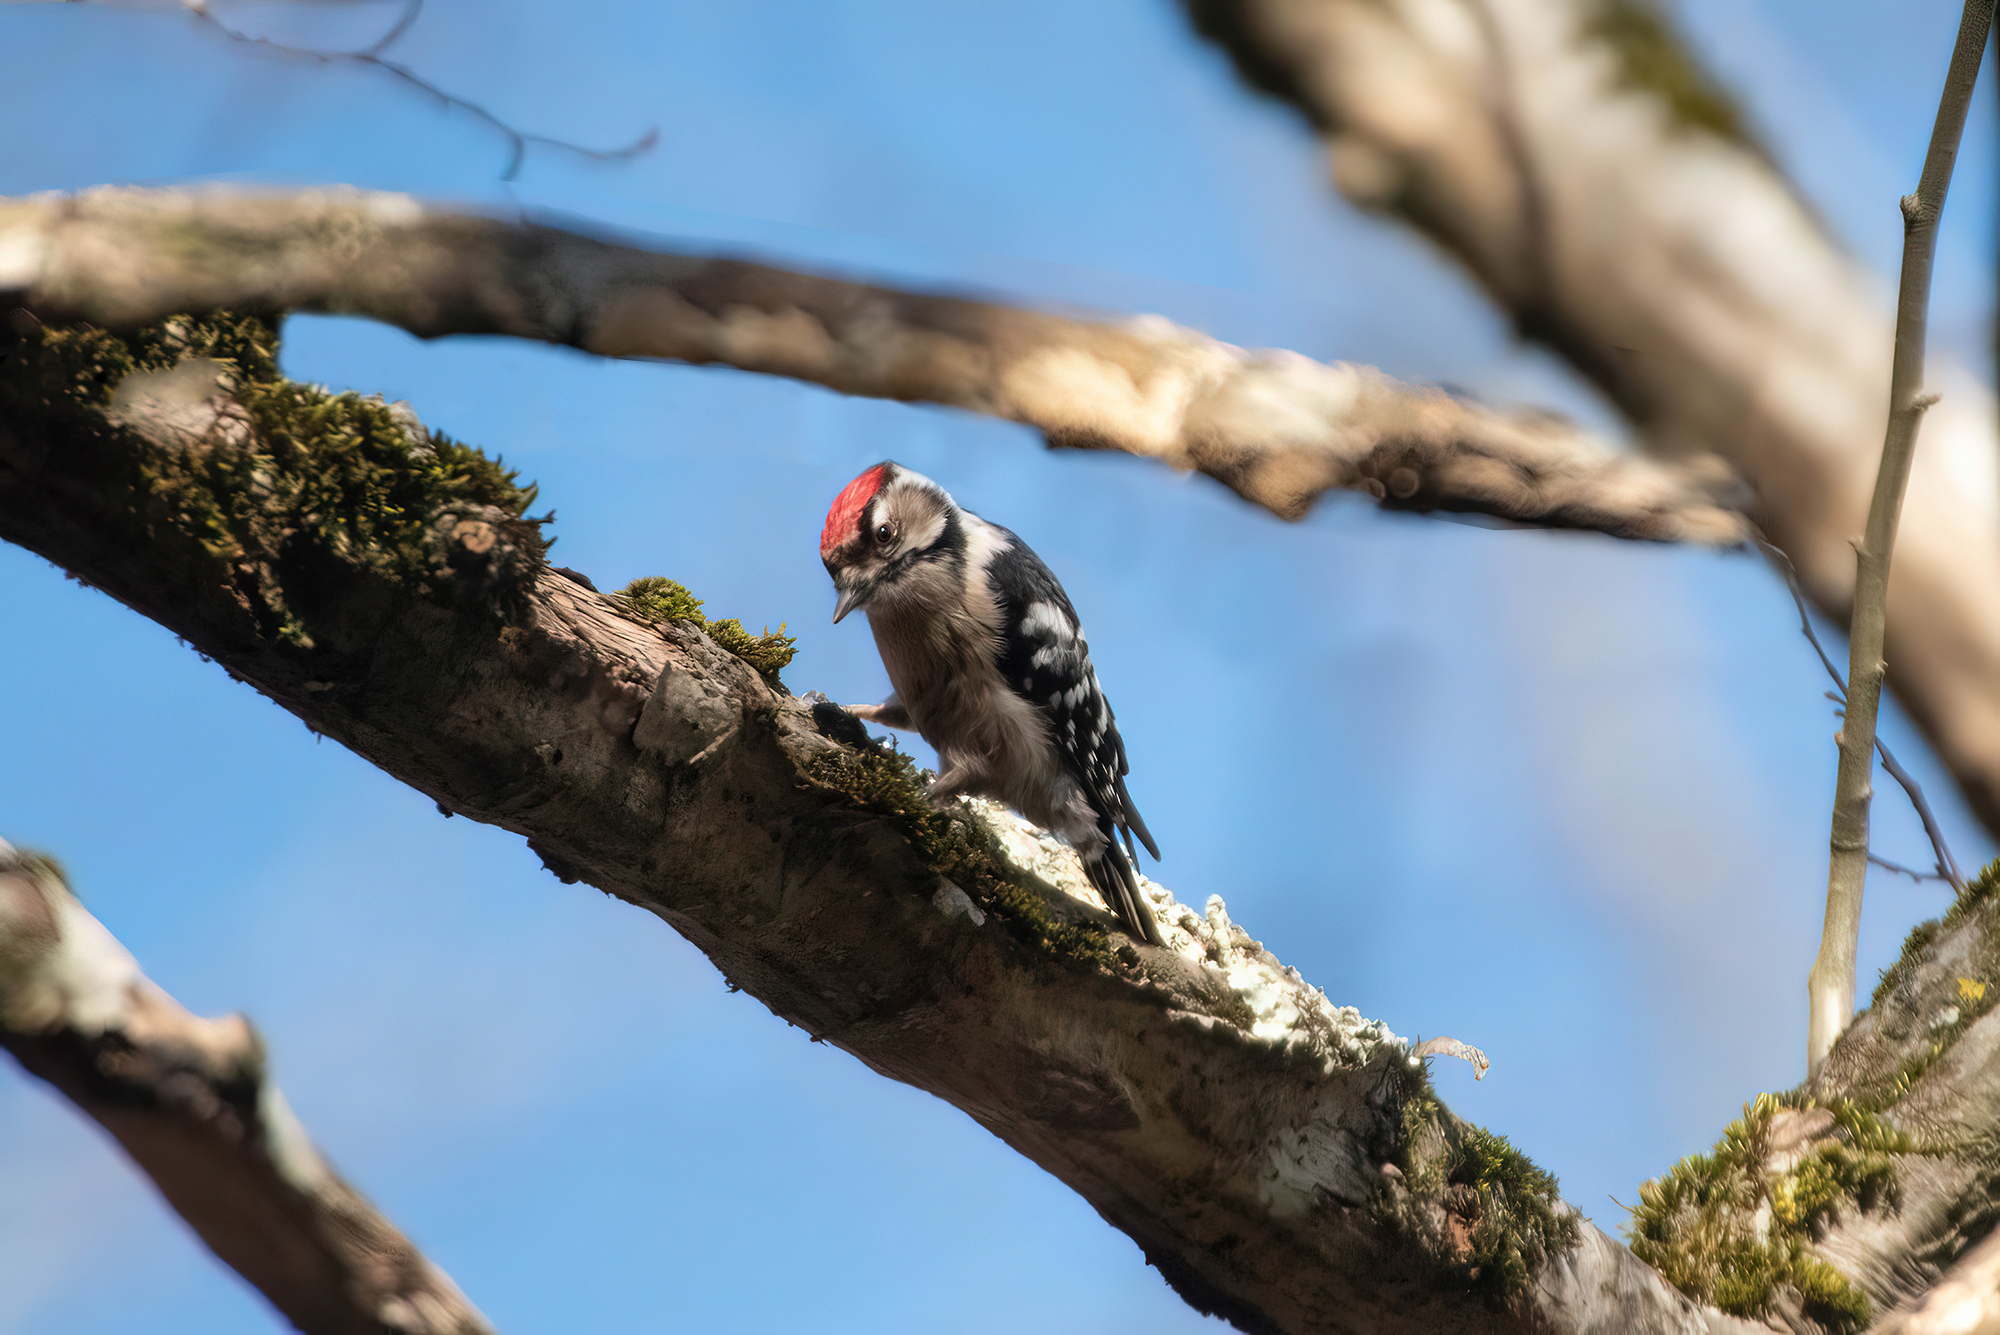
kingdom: Animalia
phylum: Chordata
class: Aves
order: Piciformes
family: Picidae
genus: Dryobates
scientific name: Dryobates minor
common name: Lesser spotted woodpecker
